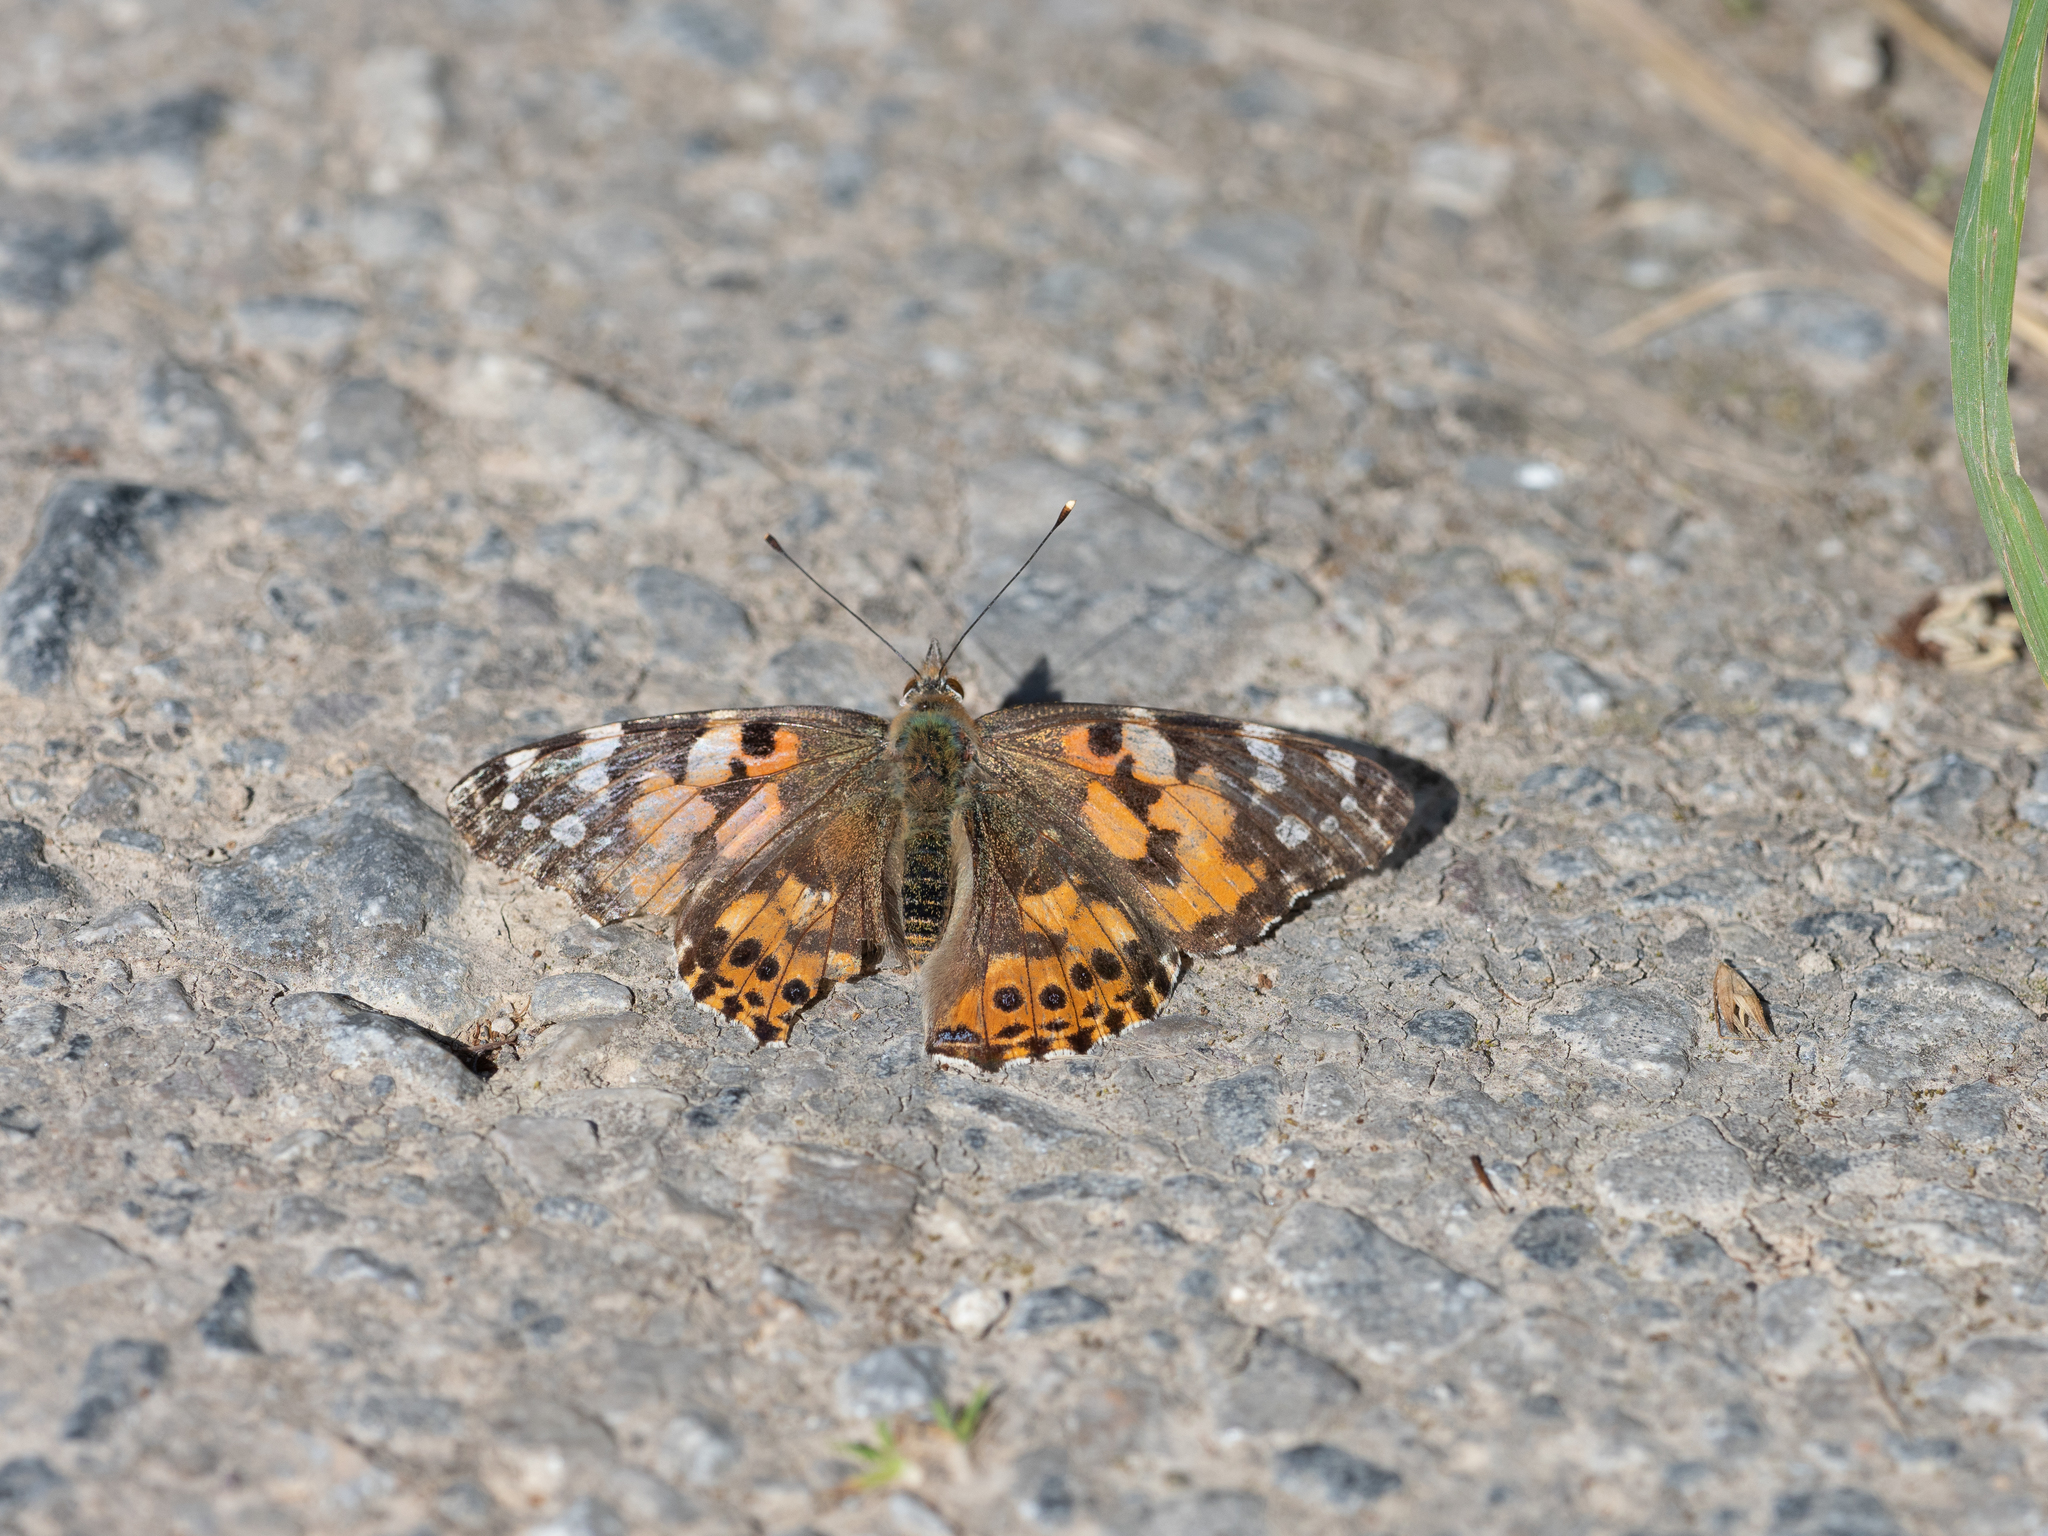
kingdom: Animalia
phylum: Arthropoda
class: Insecta
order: Lepidoptera
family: Nymphalidae
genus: Vanessa
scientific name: Vanessa cardui
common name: Painted lady
